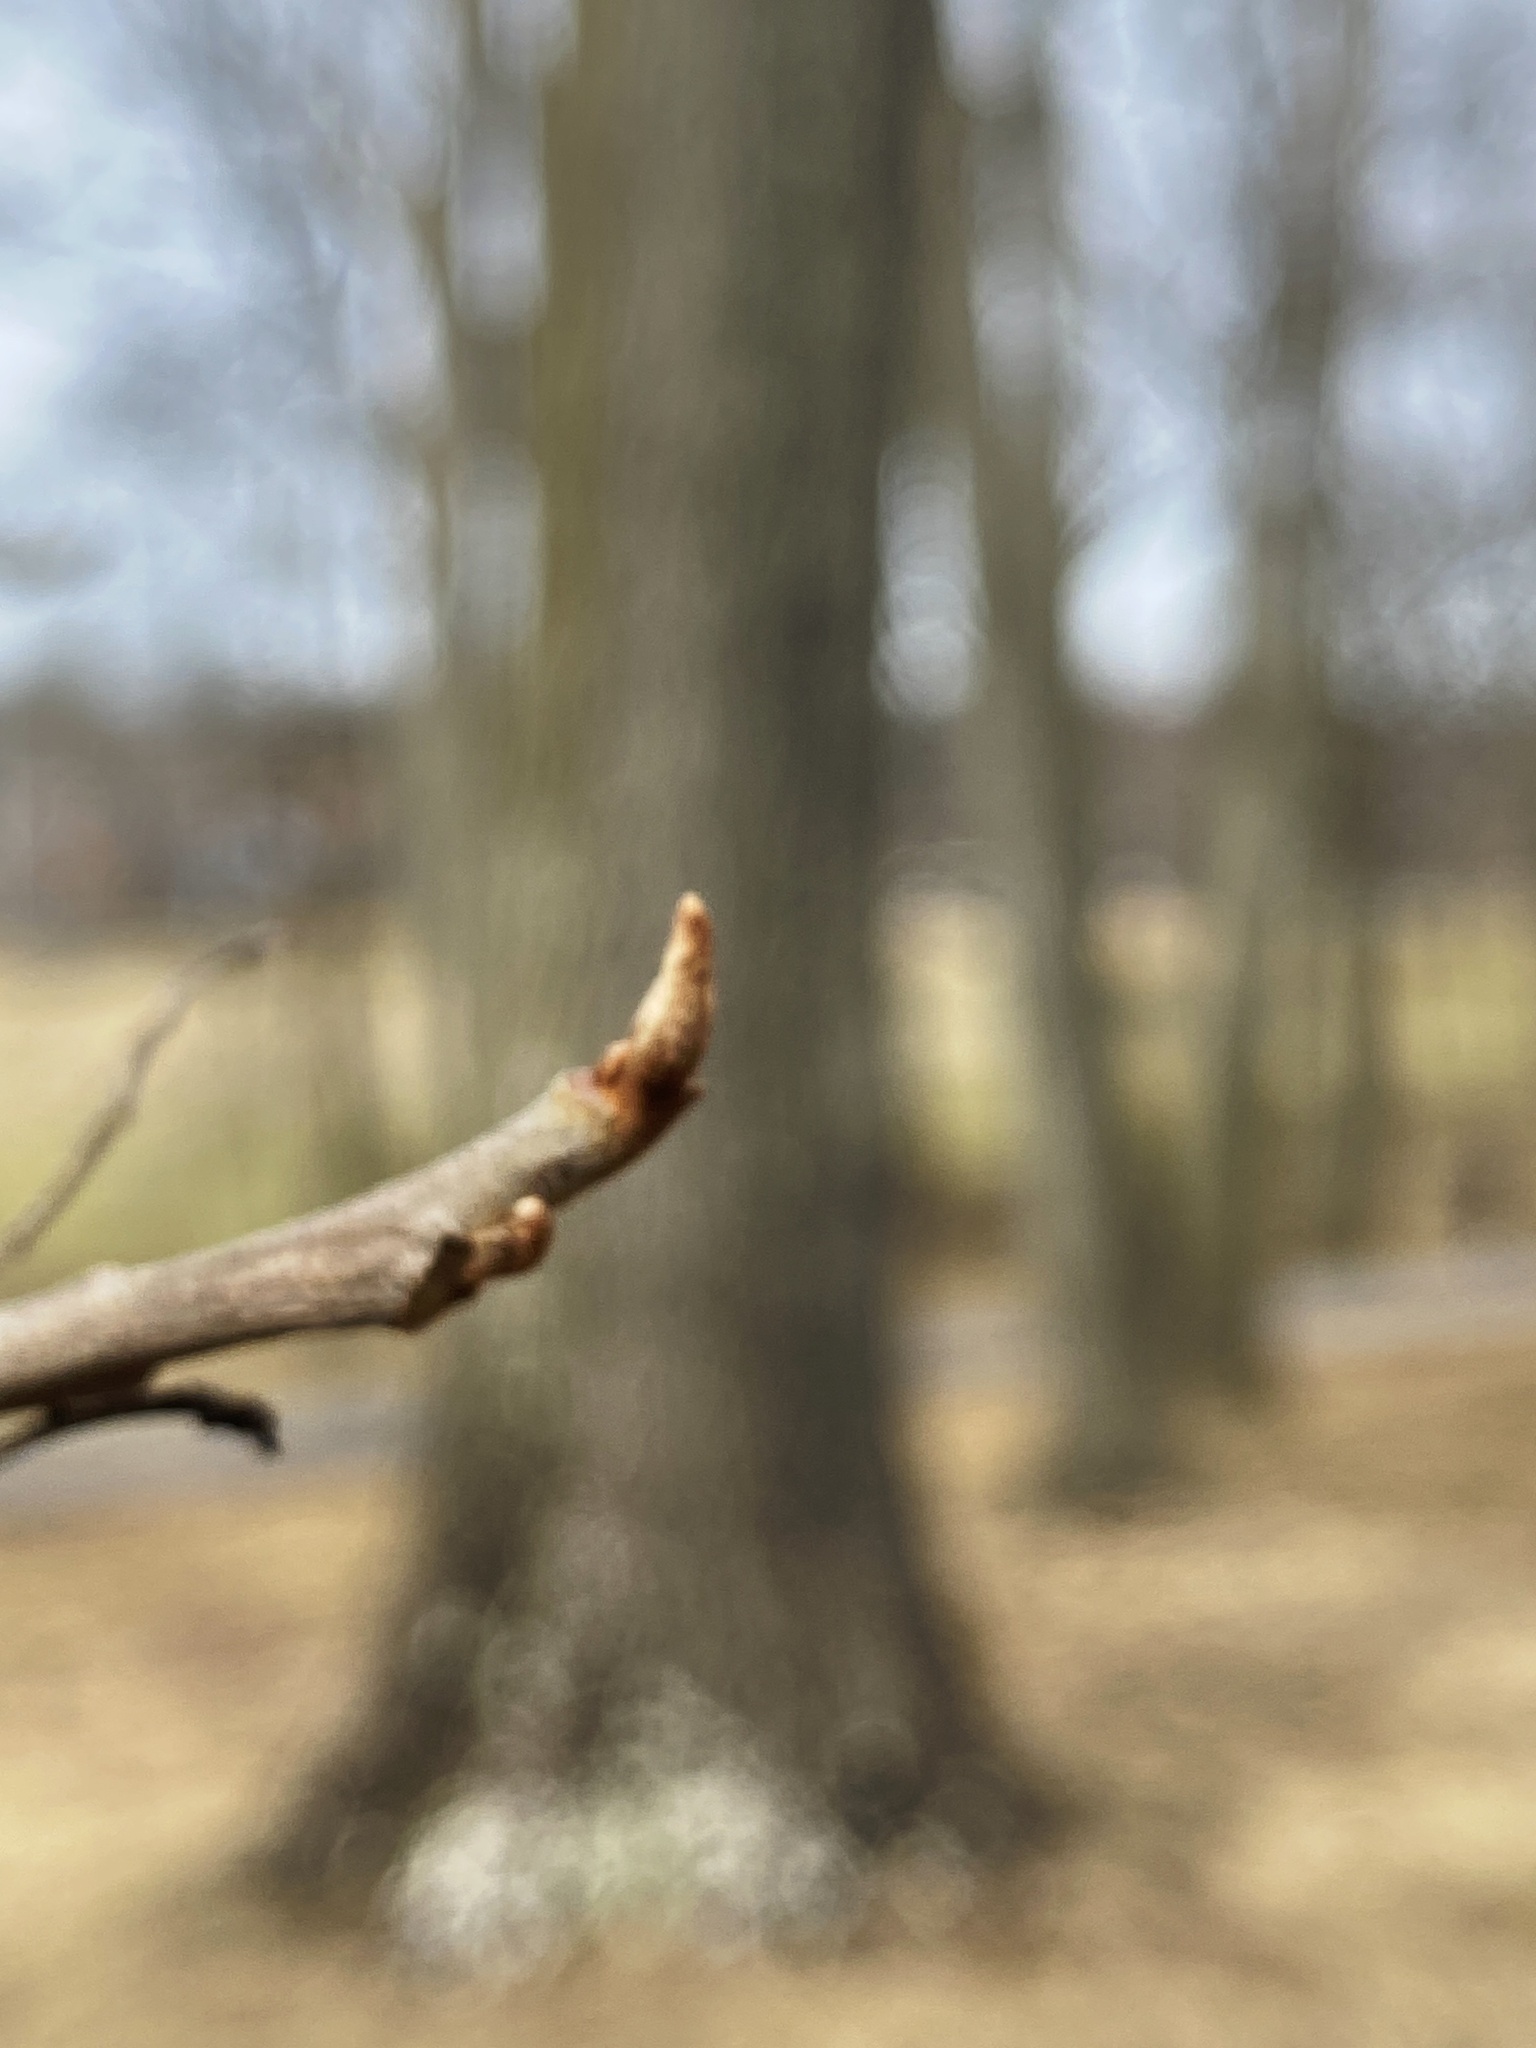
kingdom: Plantae
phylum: Tracheophyta
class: Magnoliopsida
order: Sapindales
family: Anacardiaceae
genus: Toxicodendron
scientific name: Toxicodendron radicans
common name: Poison ivy
